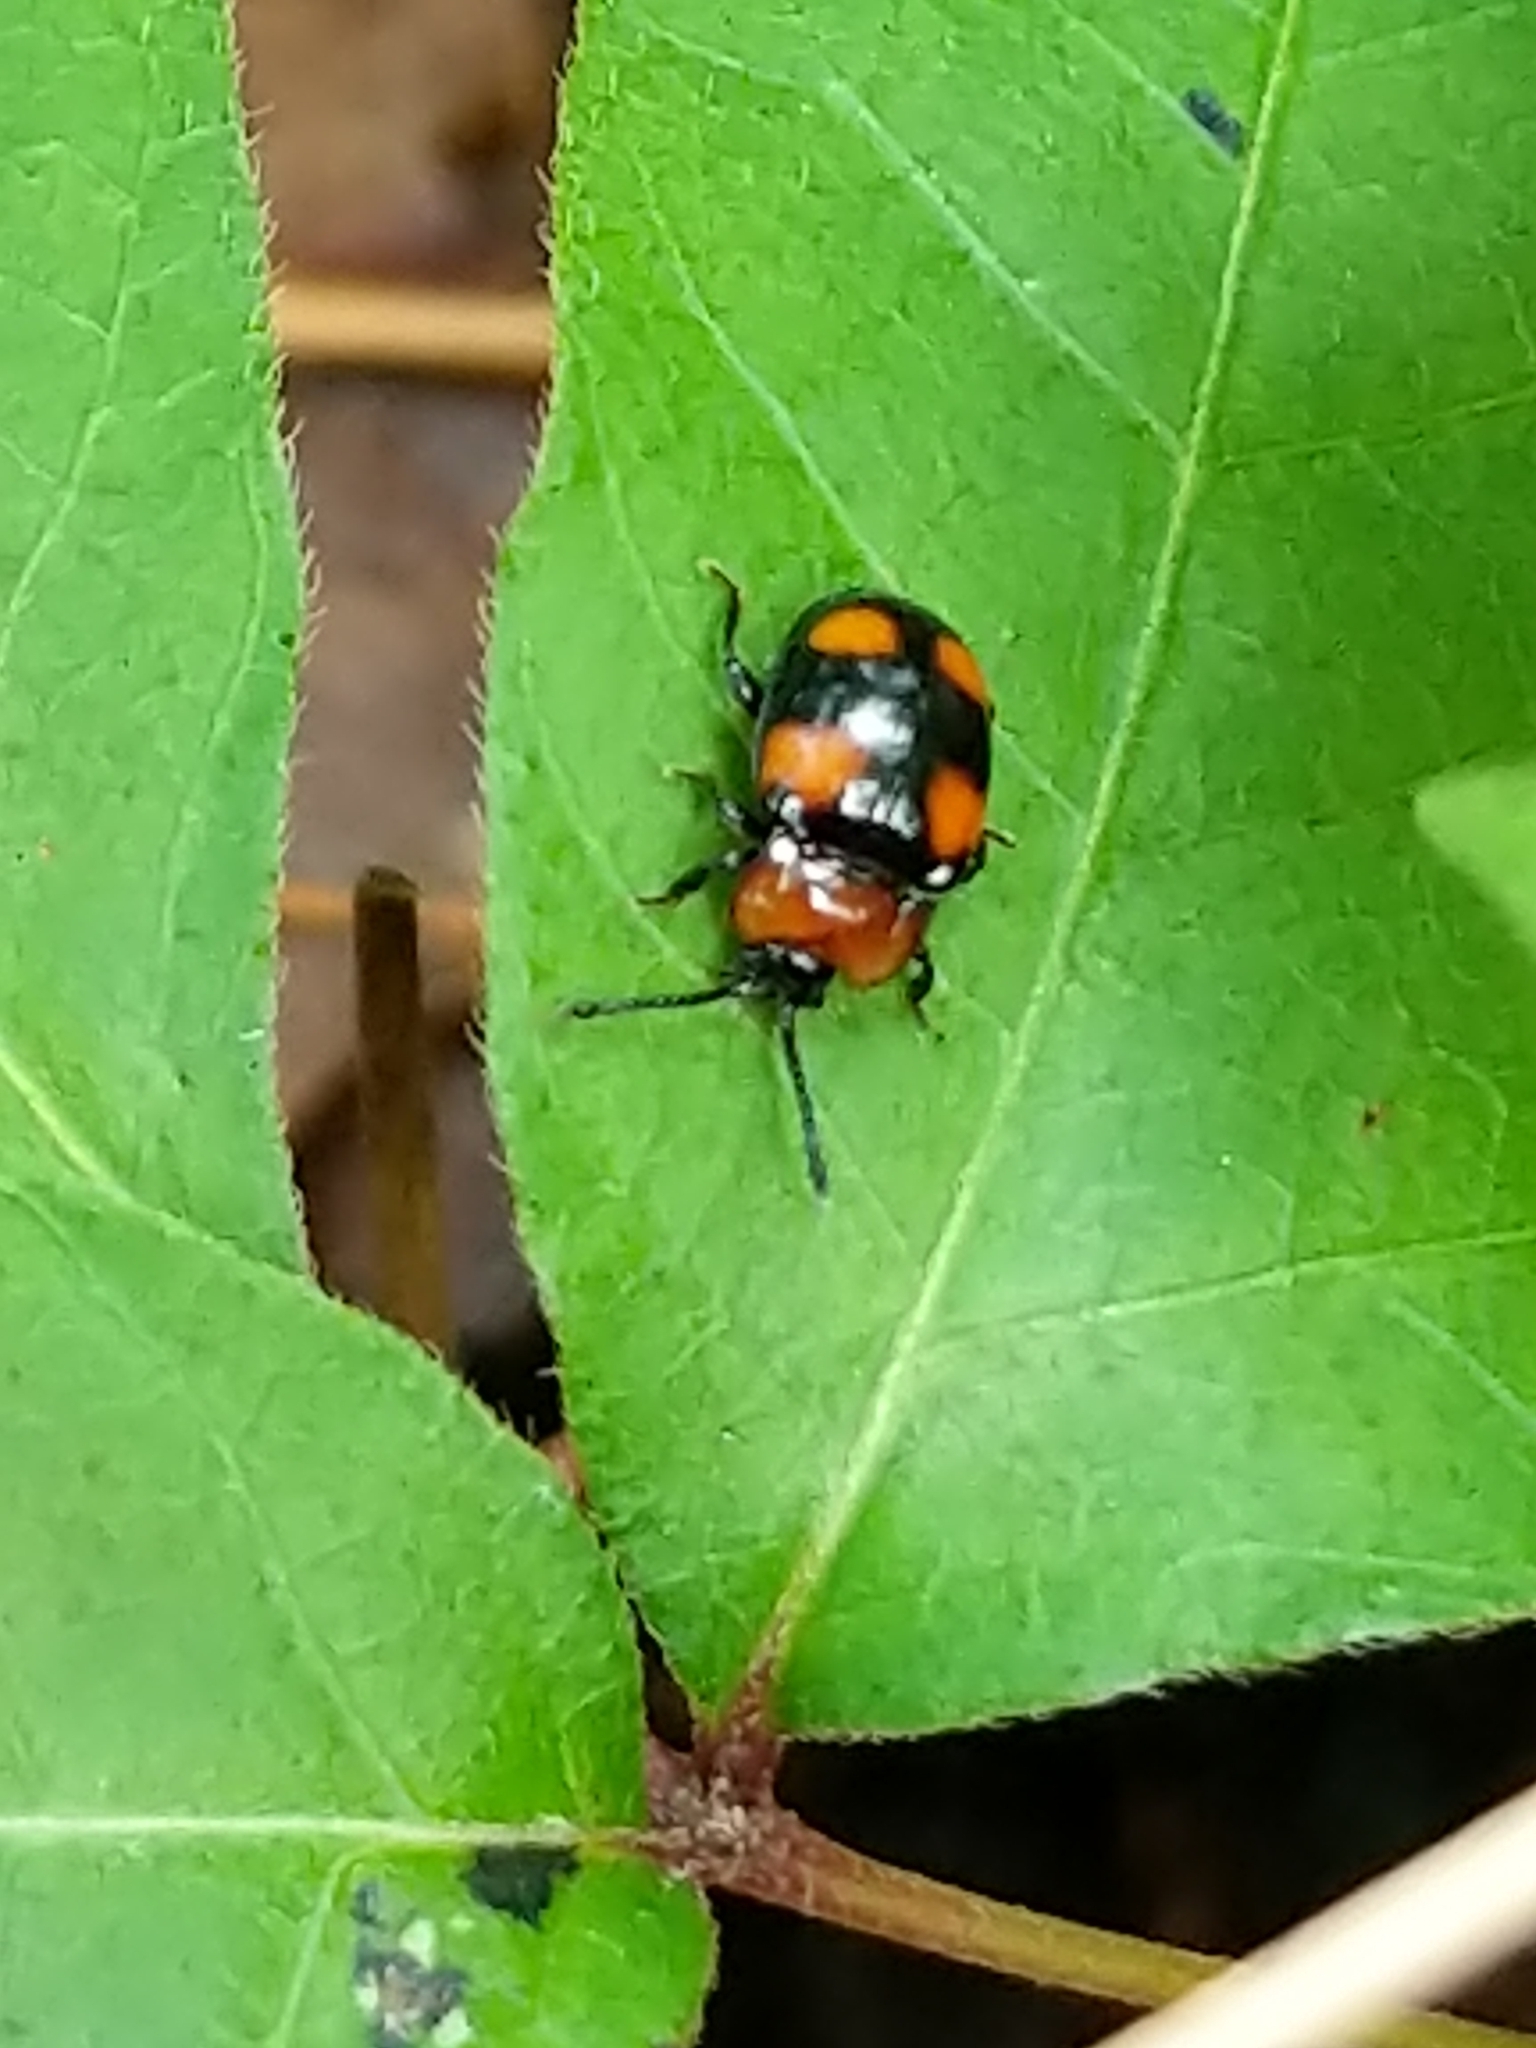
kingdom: Animalia
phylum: Arthropoda
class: Insecta
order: Coleoptera
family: Endomychidae
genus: Mycetina
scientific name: Mycetina perpulchra
